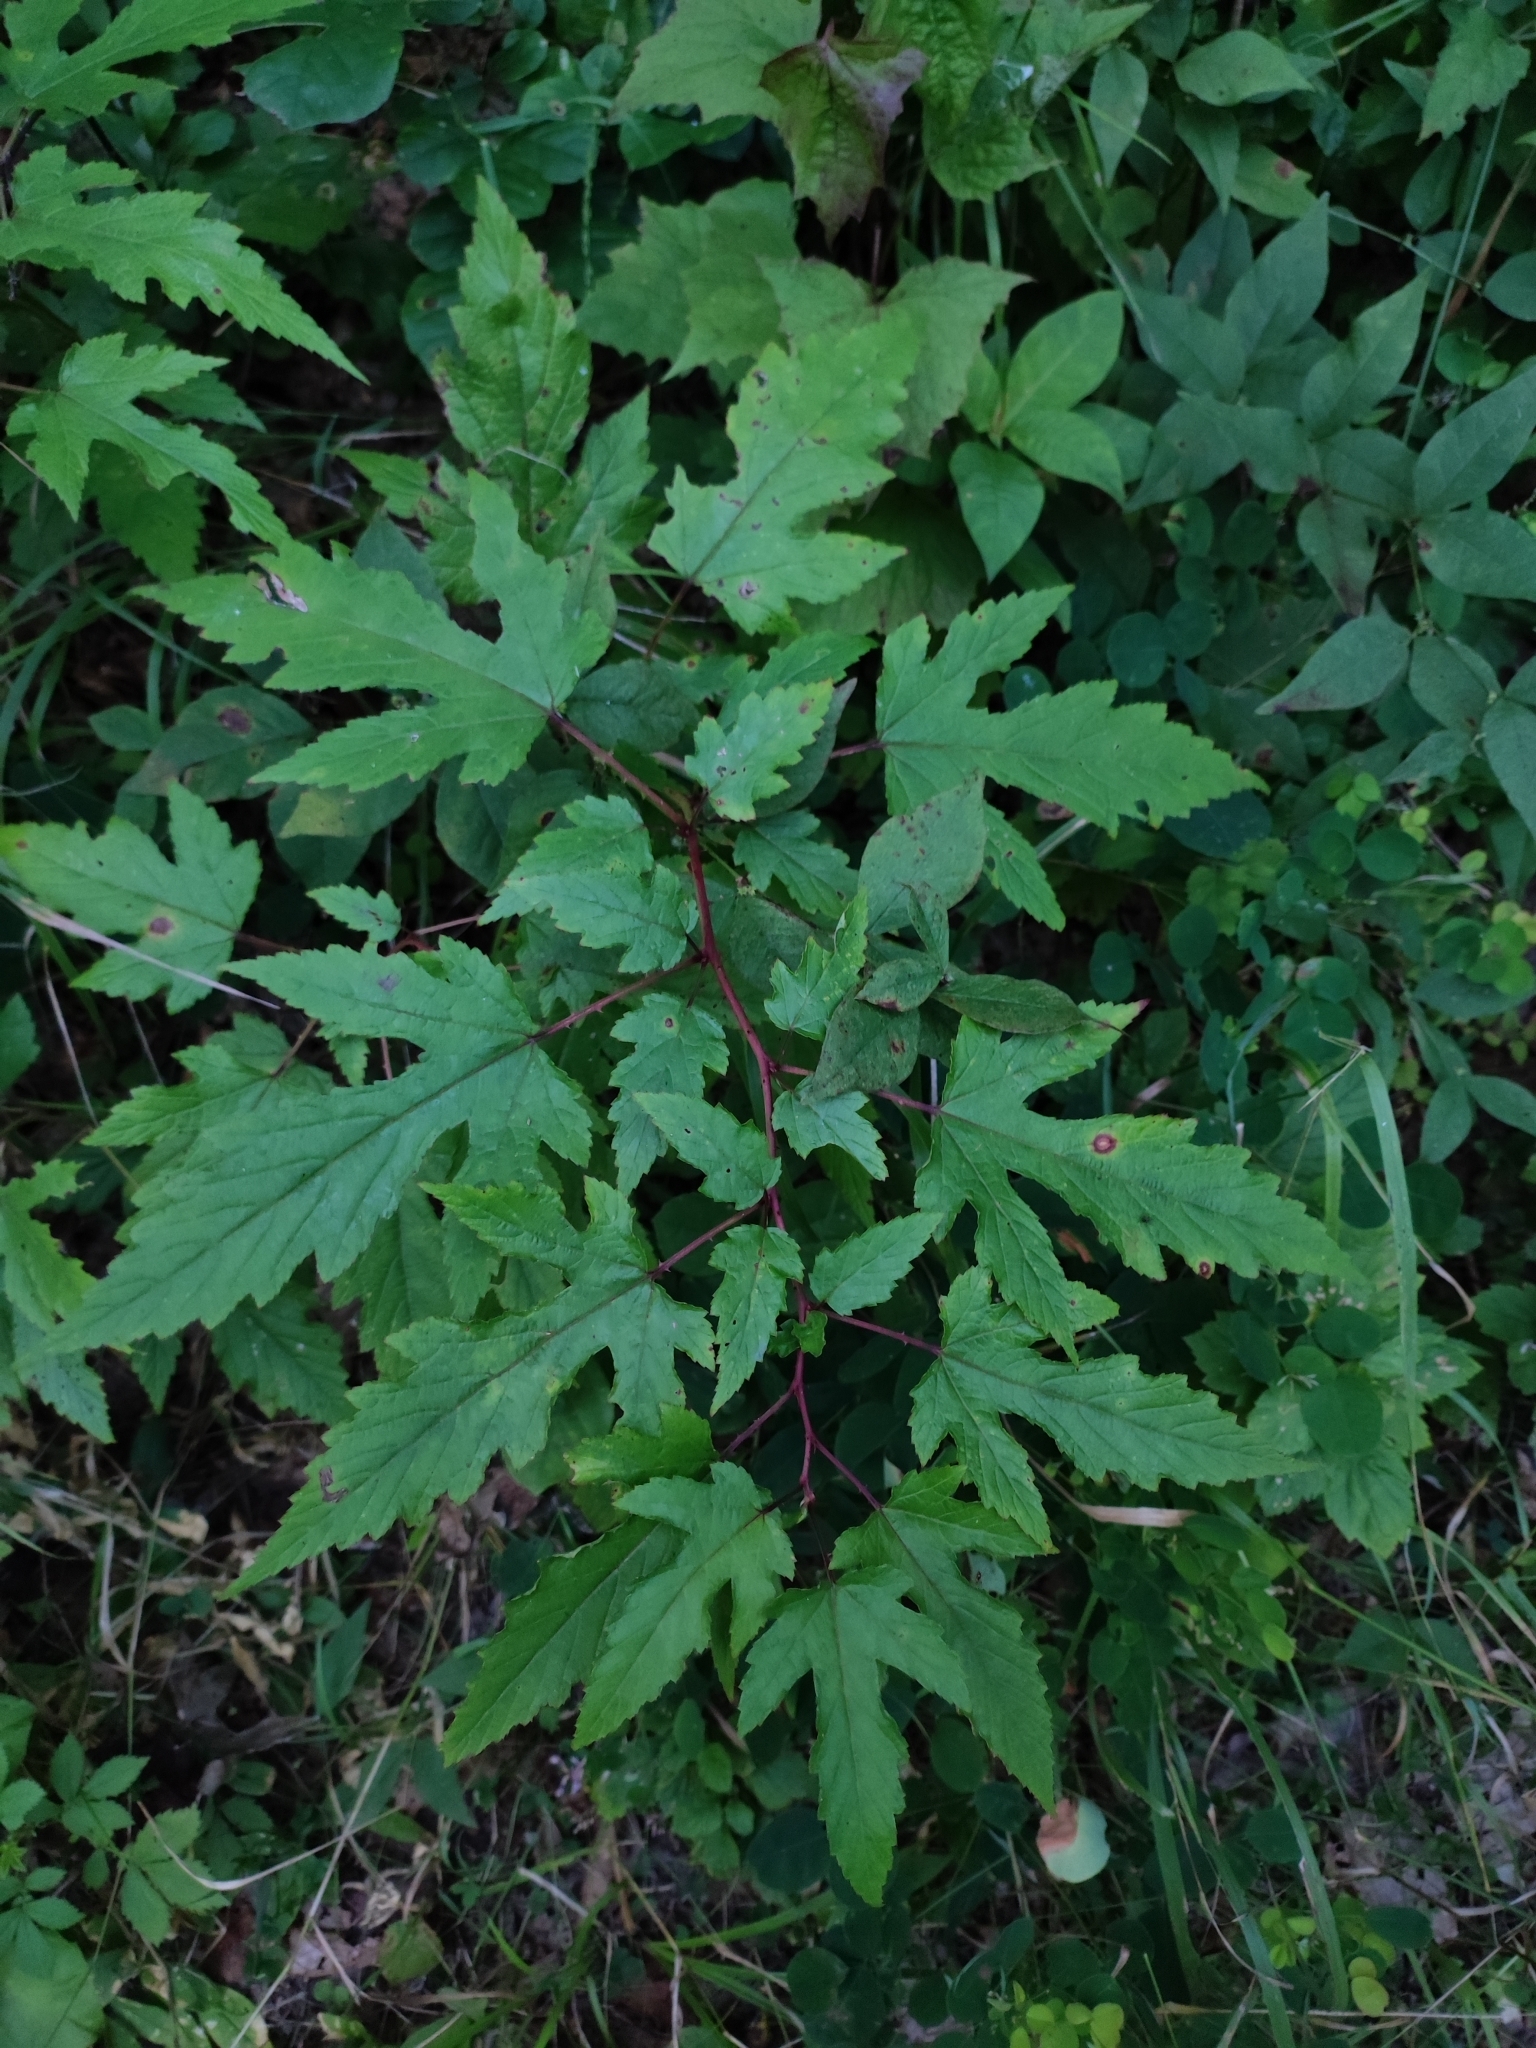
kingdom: Plantae
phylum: Tracheophyta
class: Magnoliopsida
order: Rosales
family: Rosaceae
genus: Rubus
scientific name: Rubus crataegifolius
